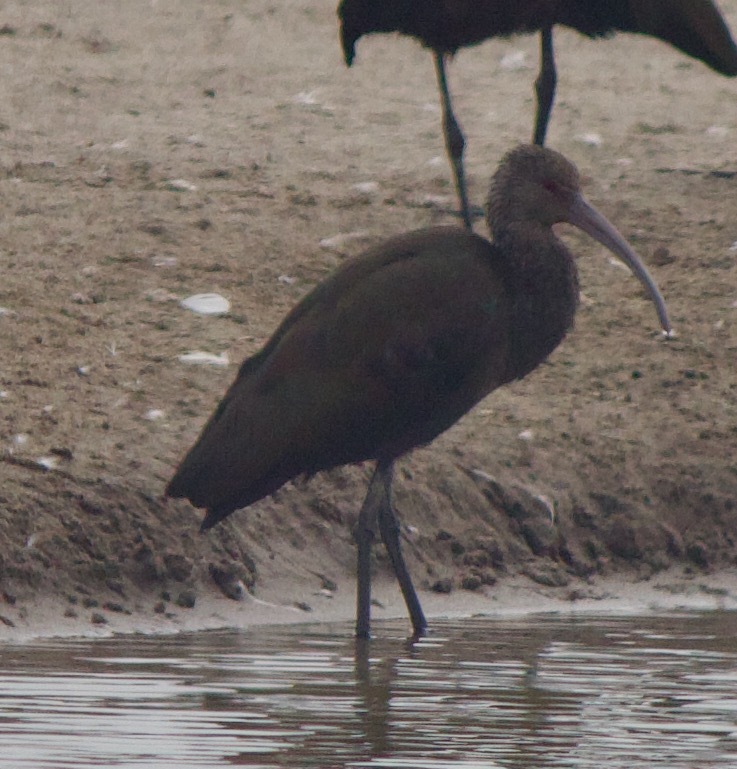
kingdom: Animalia
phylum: Chordata
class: Aves
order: Pelecaniformes
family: Threskiornithidae
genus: Plegadis
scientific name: Plegadis chihi
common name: White-faced ibis
